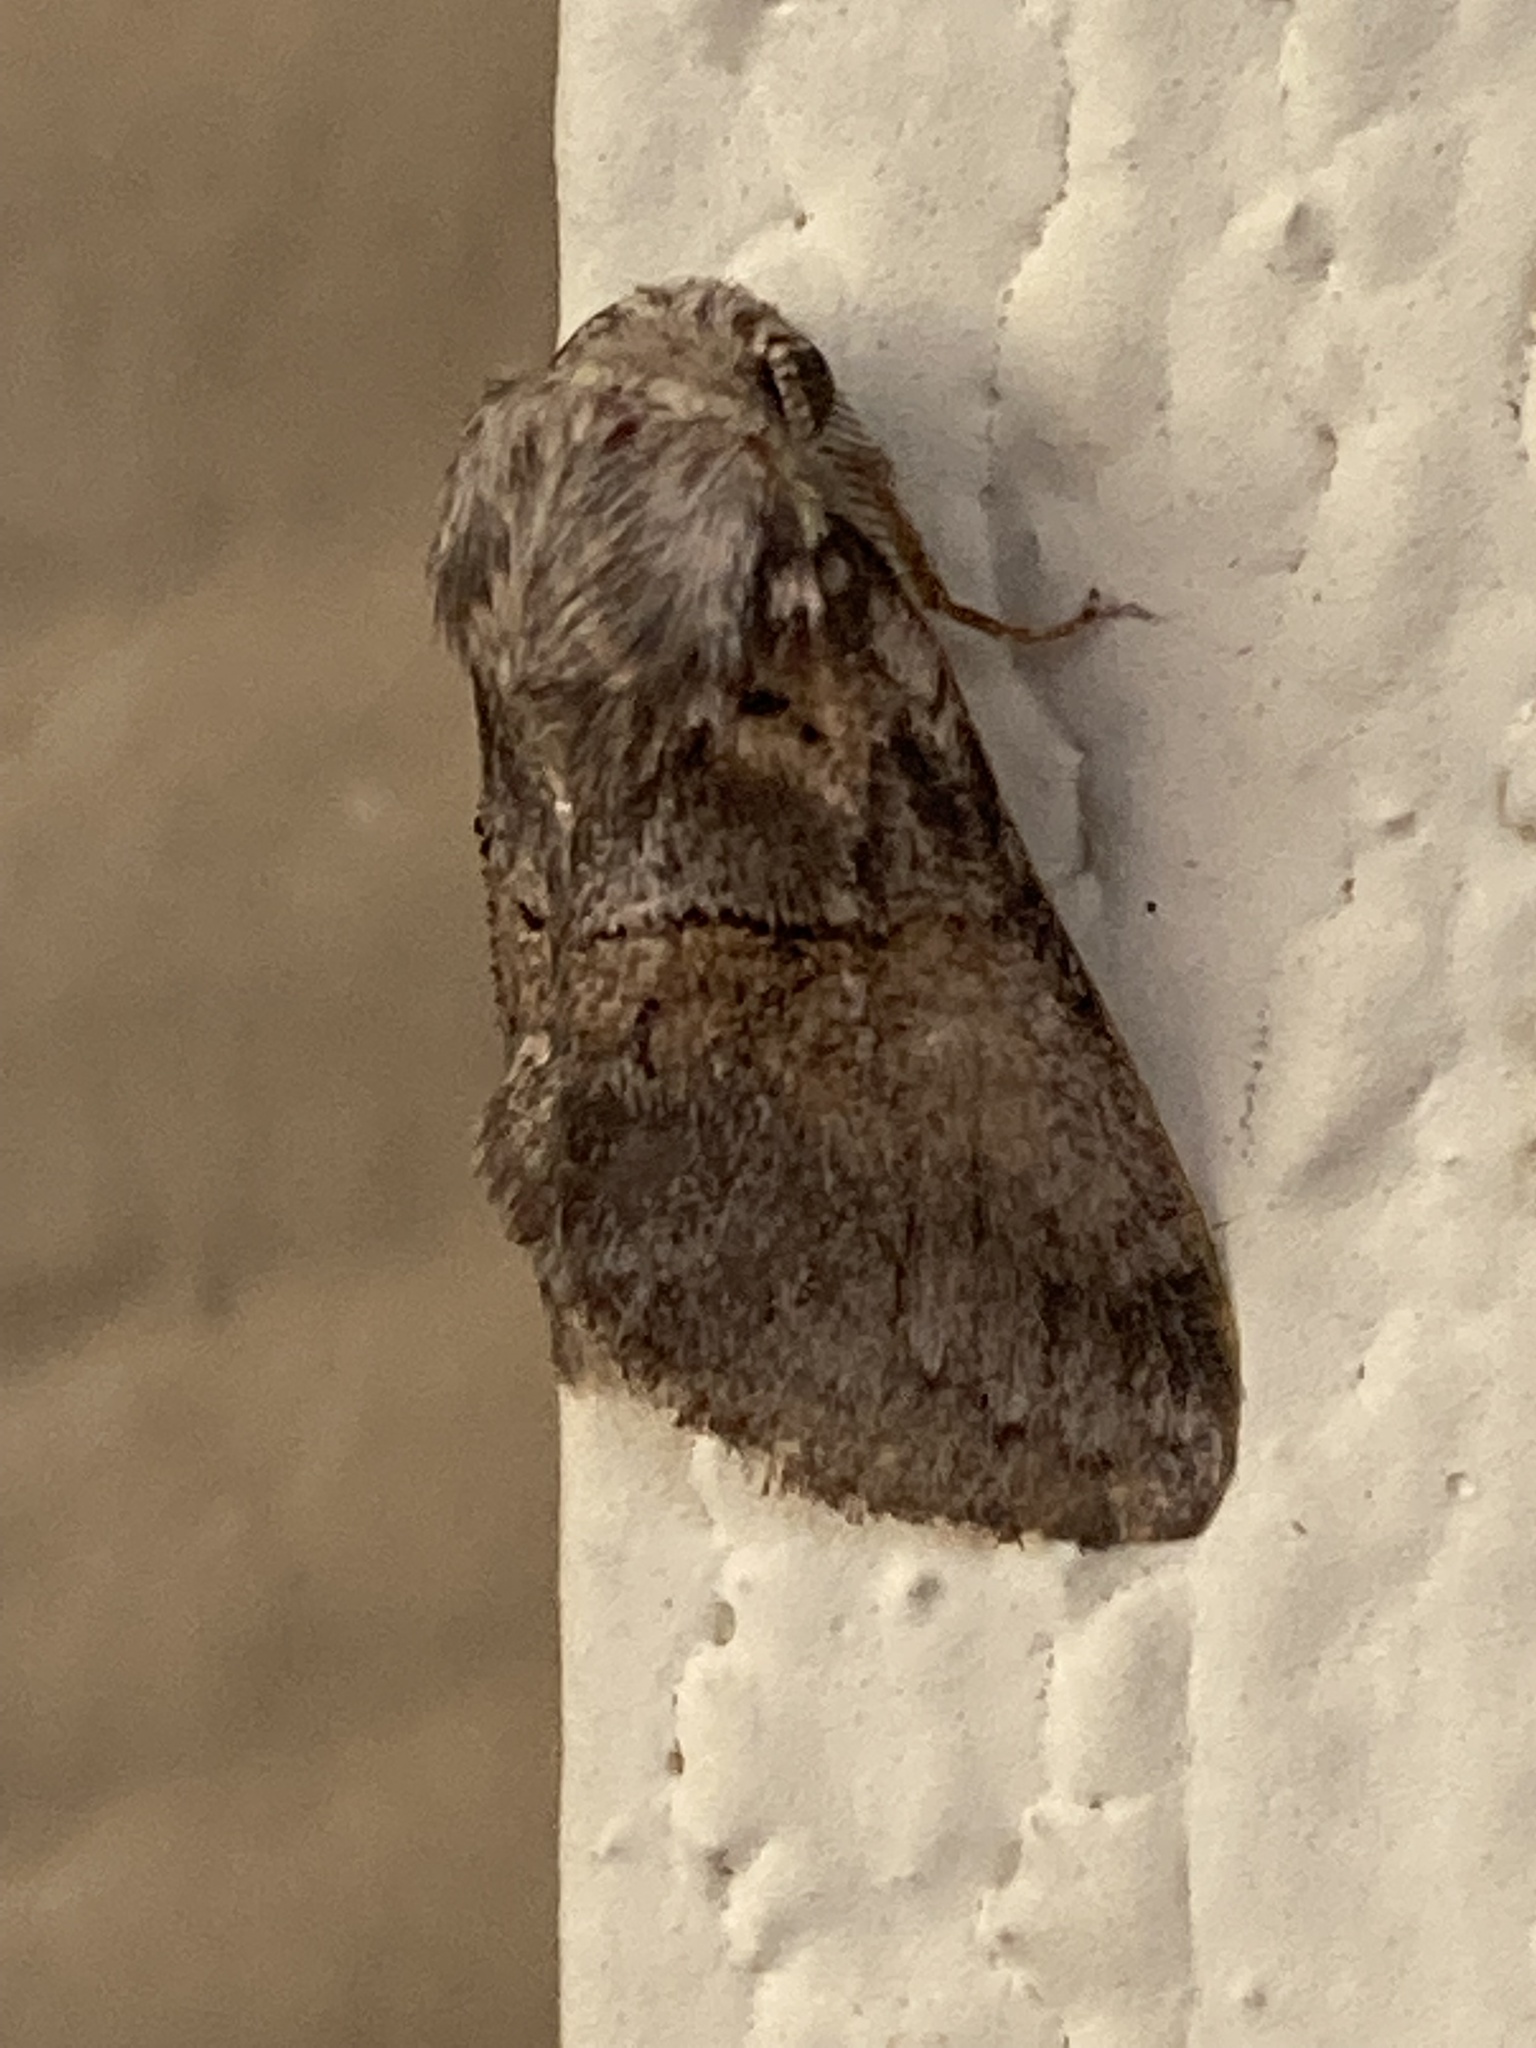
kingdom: Animalia
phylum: Arthropoda
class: Insecta
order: Lepidoptera
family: Notodontidae
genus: Gluphisia
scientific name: Gluphisia septentrionis
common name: Common gluphisia
